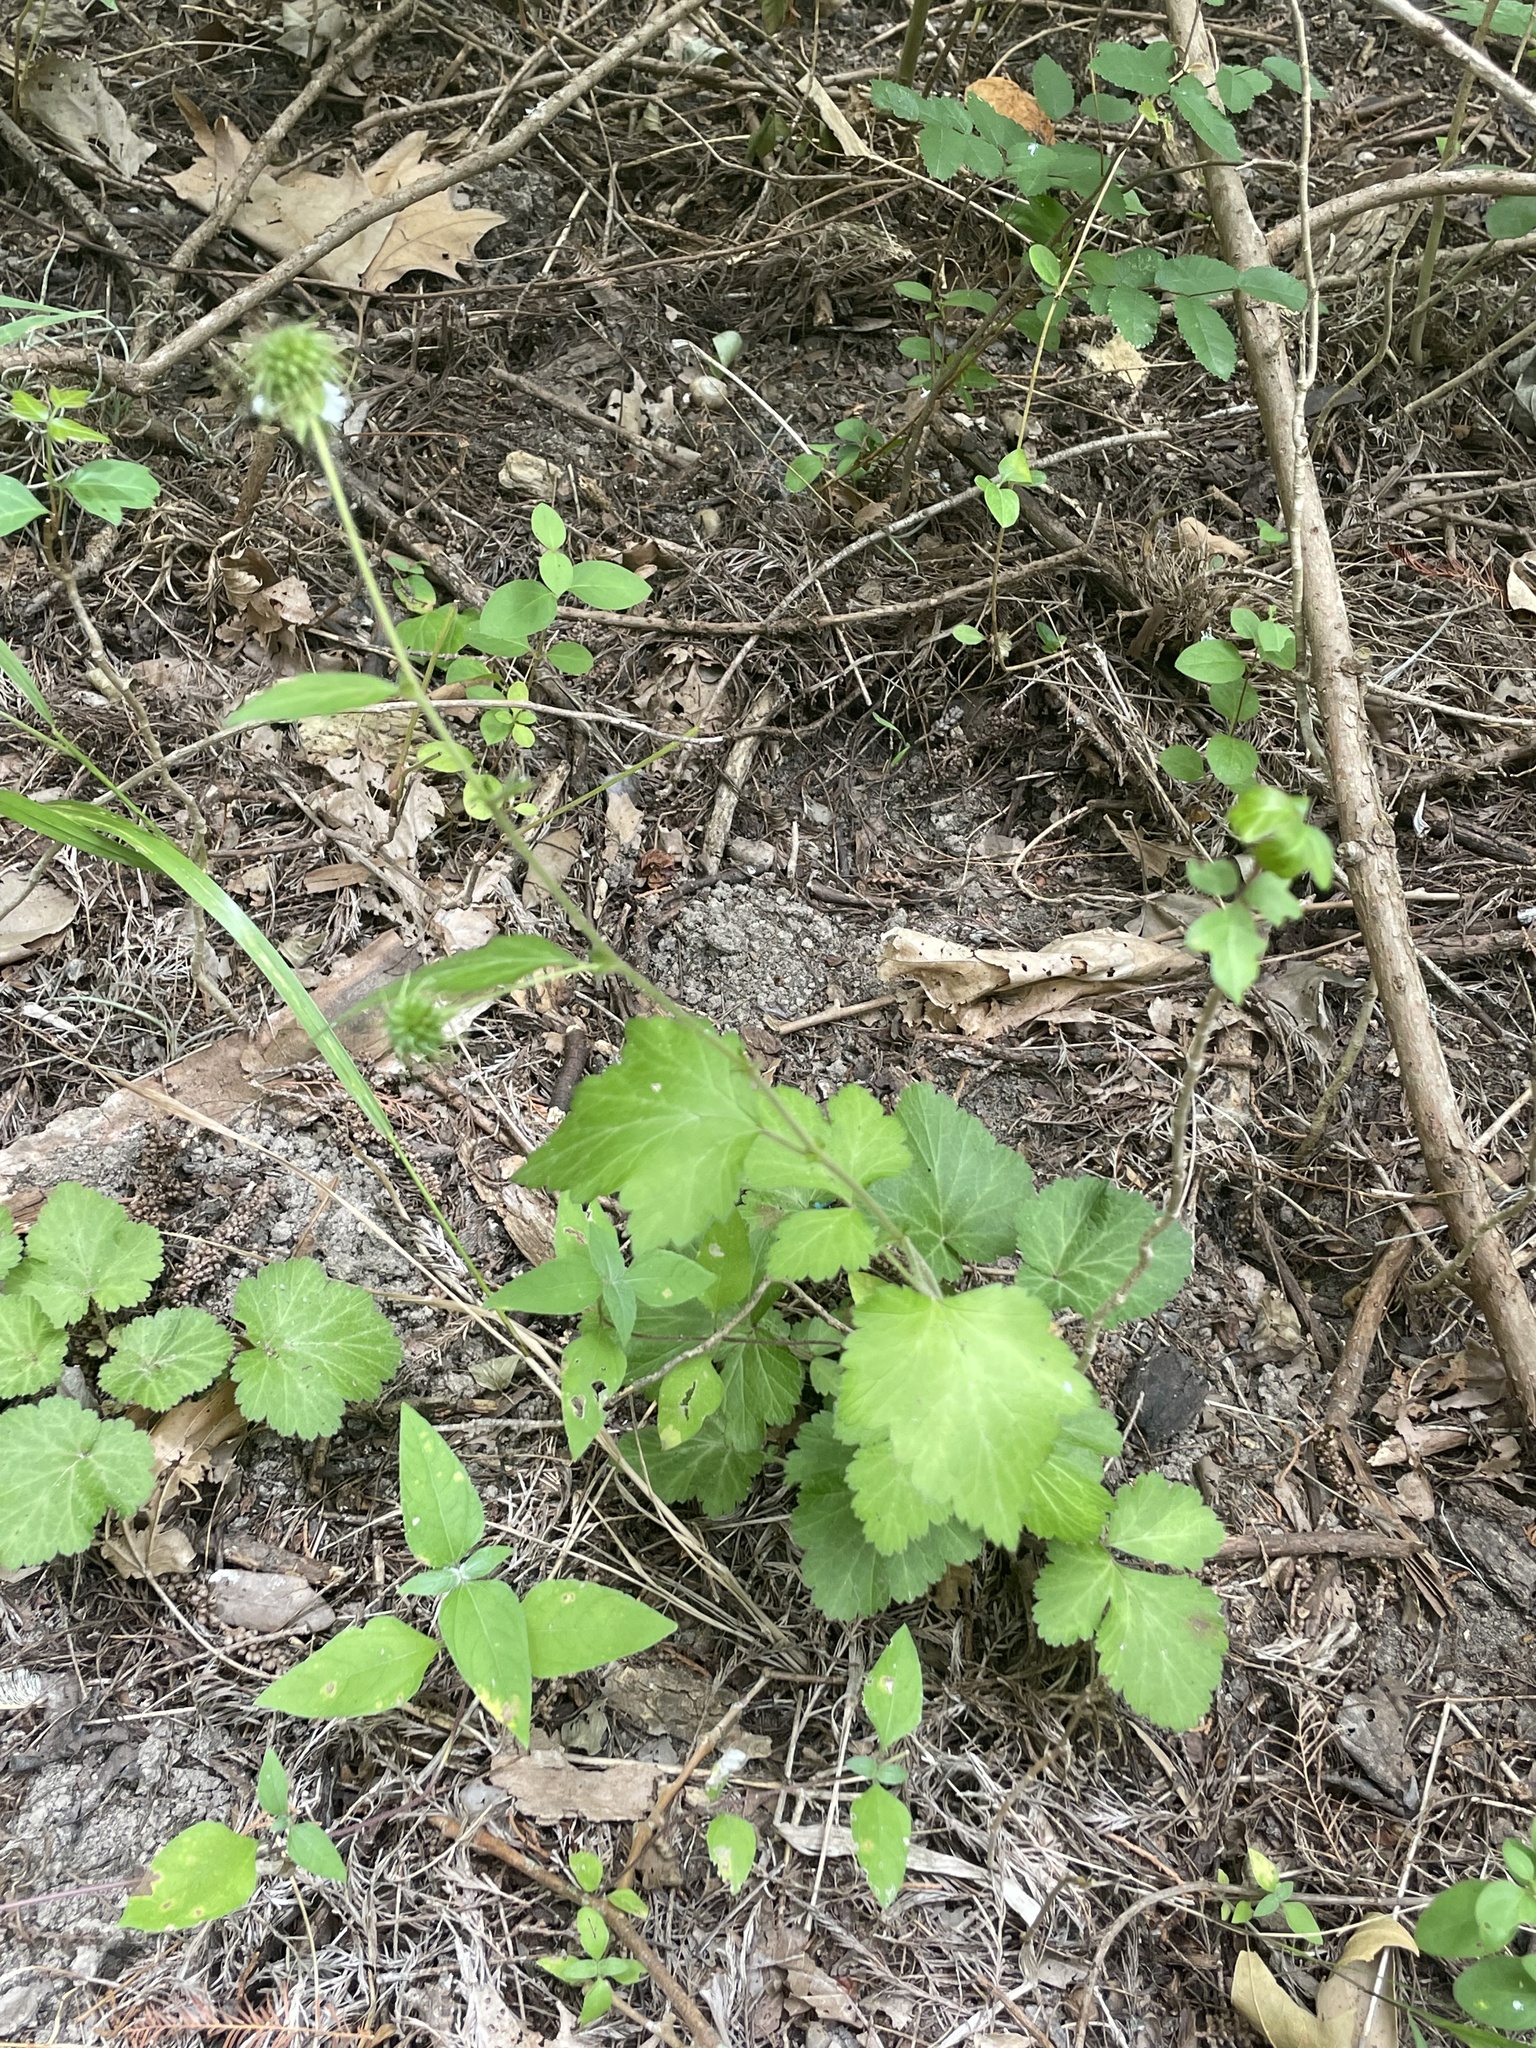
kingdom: Plantae
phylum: Tracheophyta
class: Magnoliopsida
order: Rosales
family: Rosaceae
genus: Geum
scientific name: Geum canadense
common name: White avens
